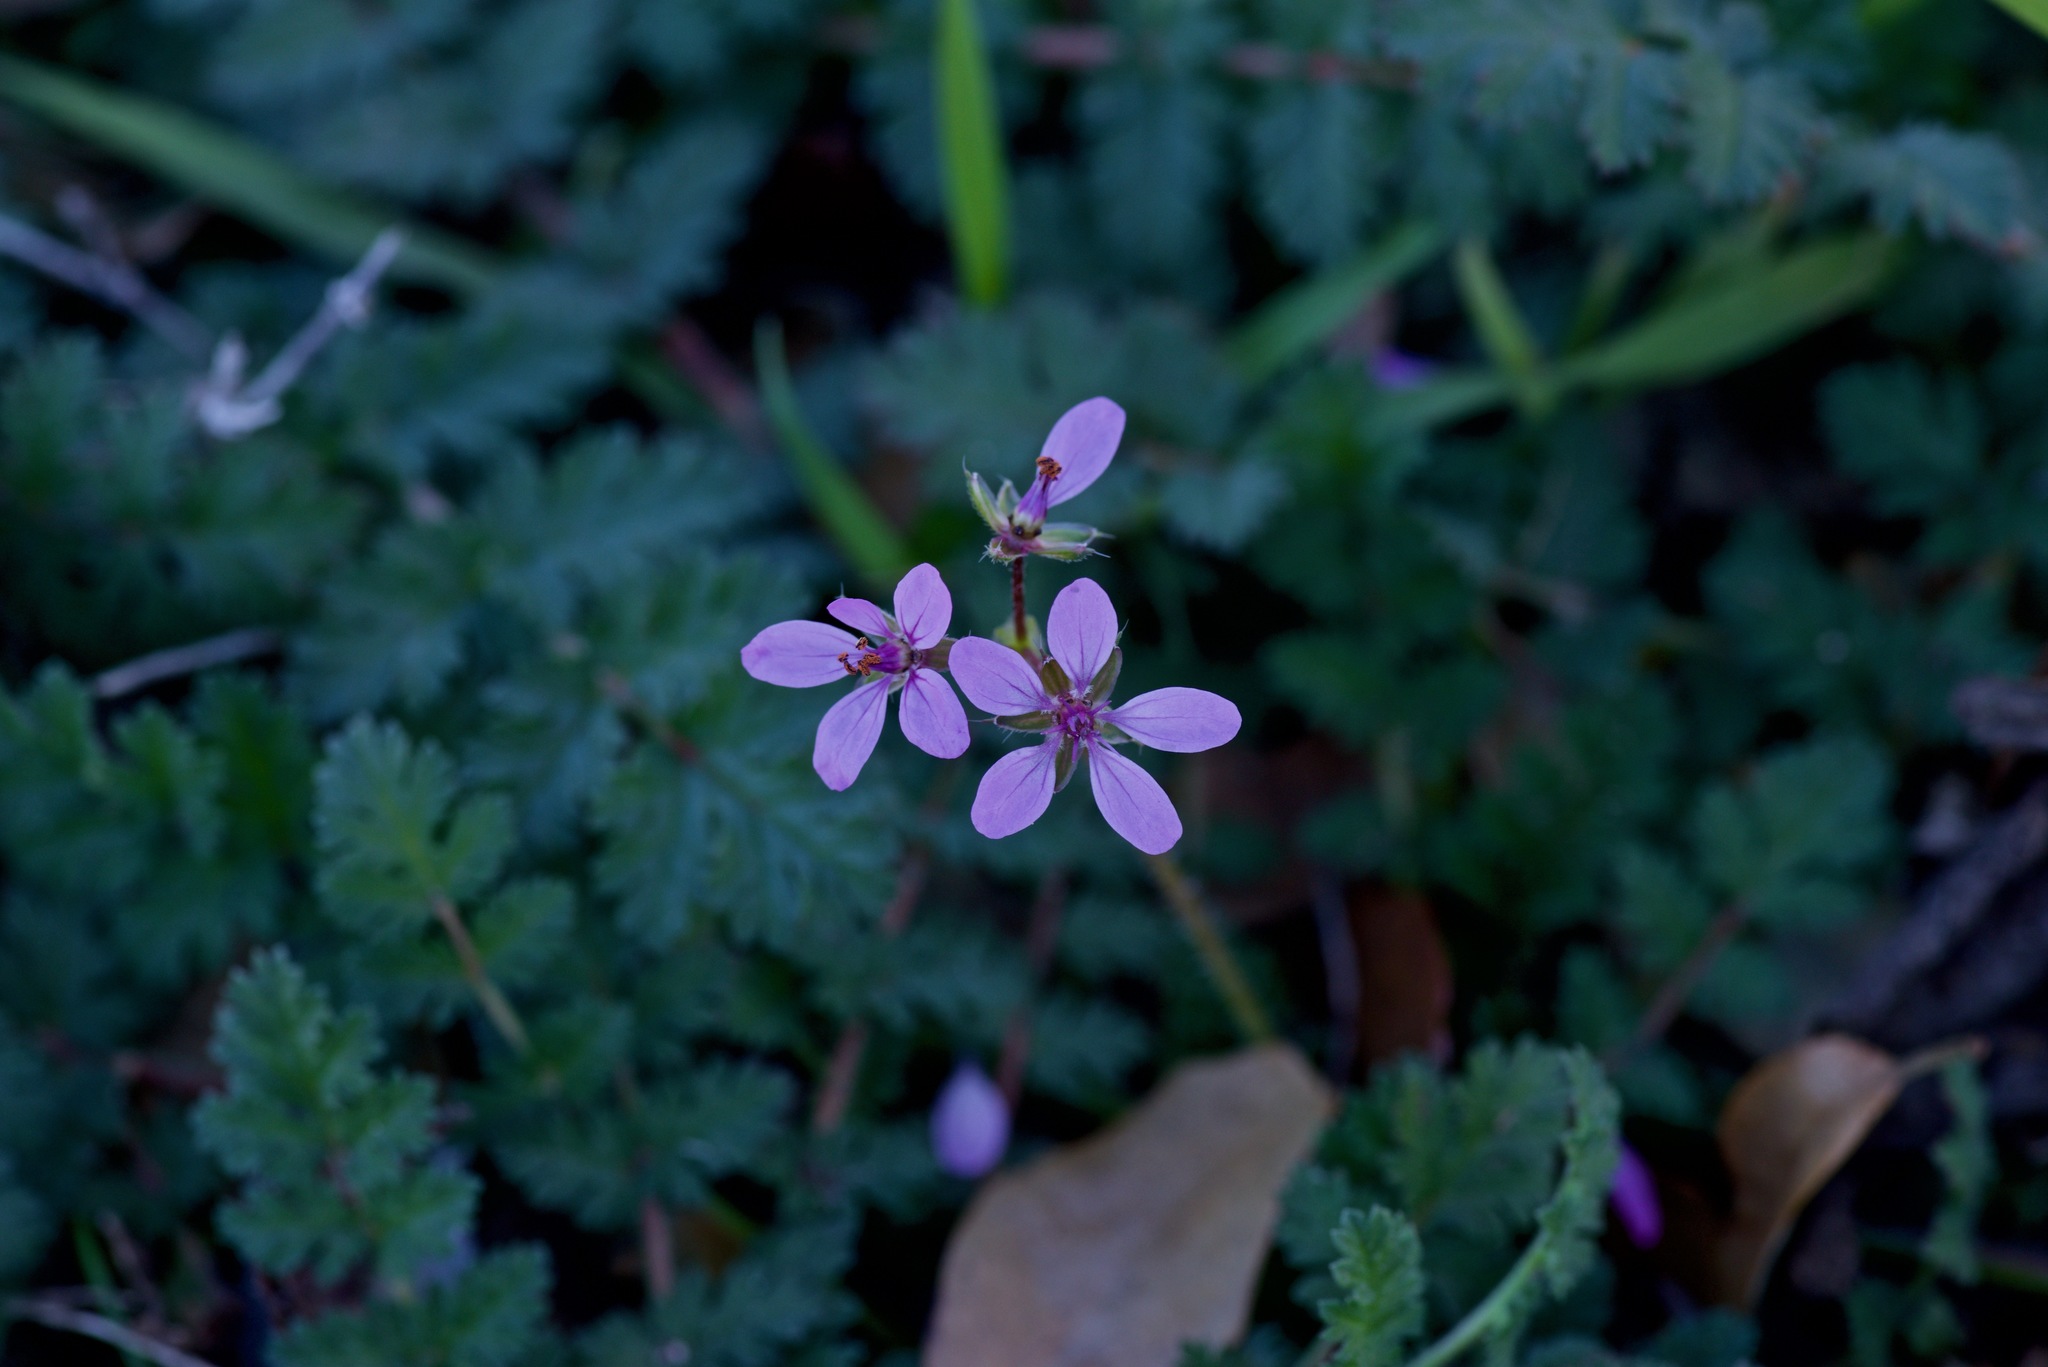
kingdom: Plantae
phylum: Tracheophyta
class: Magnoliopsida
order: Geraniales
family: Geraniaceae
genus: Erodium
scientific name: Erodium cicutarium
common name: Common stork's-bill
